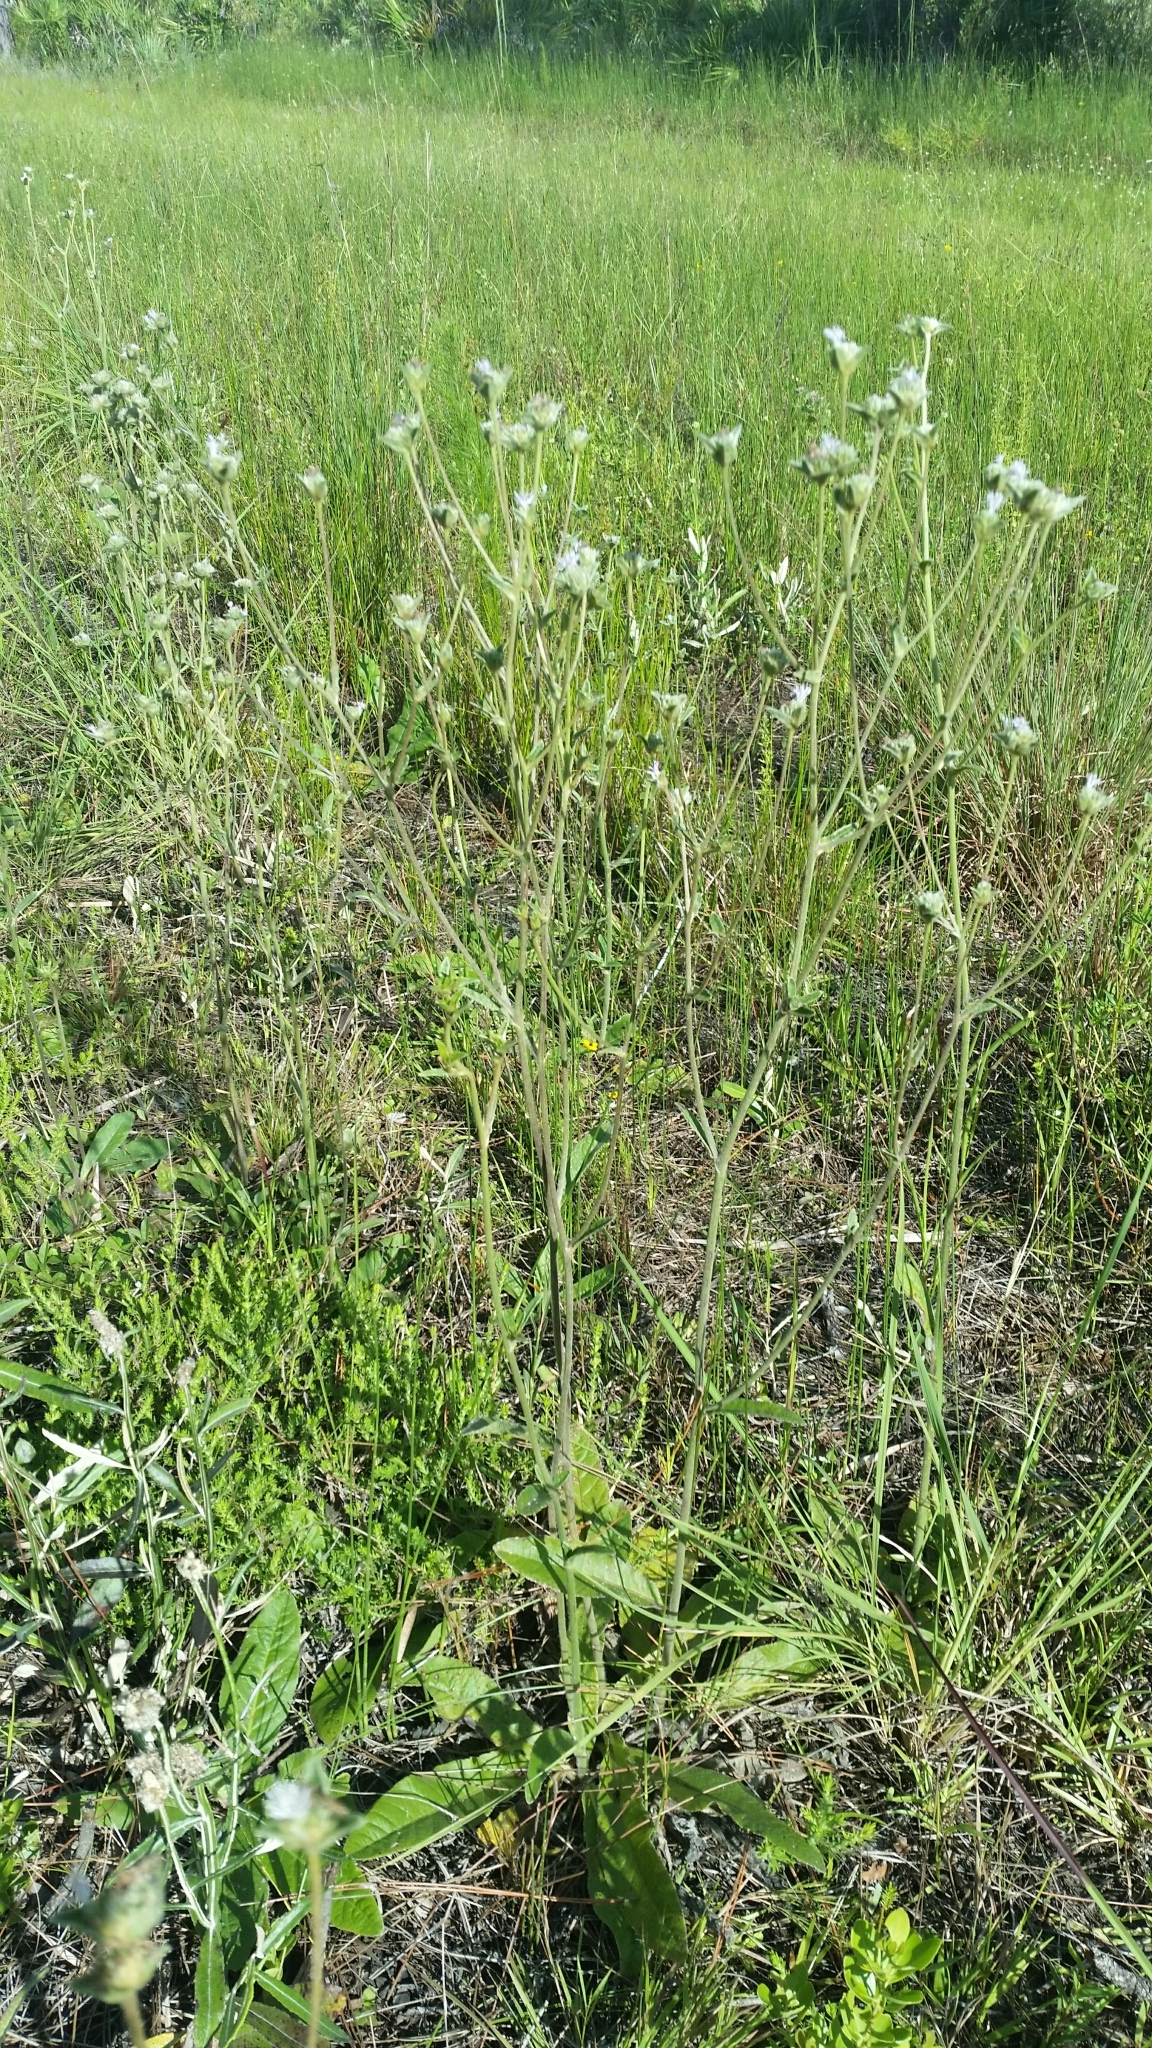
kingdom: Plantae
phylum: Tracheophyta
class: Magnoliopsida
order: Asterales
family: Asteraceae
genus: Elephantopus
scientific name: Elephantopus elatus
